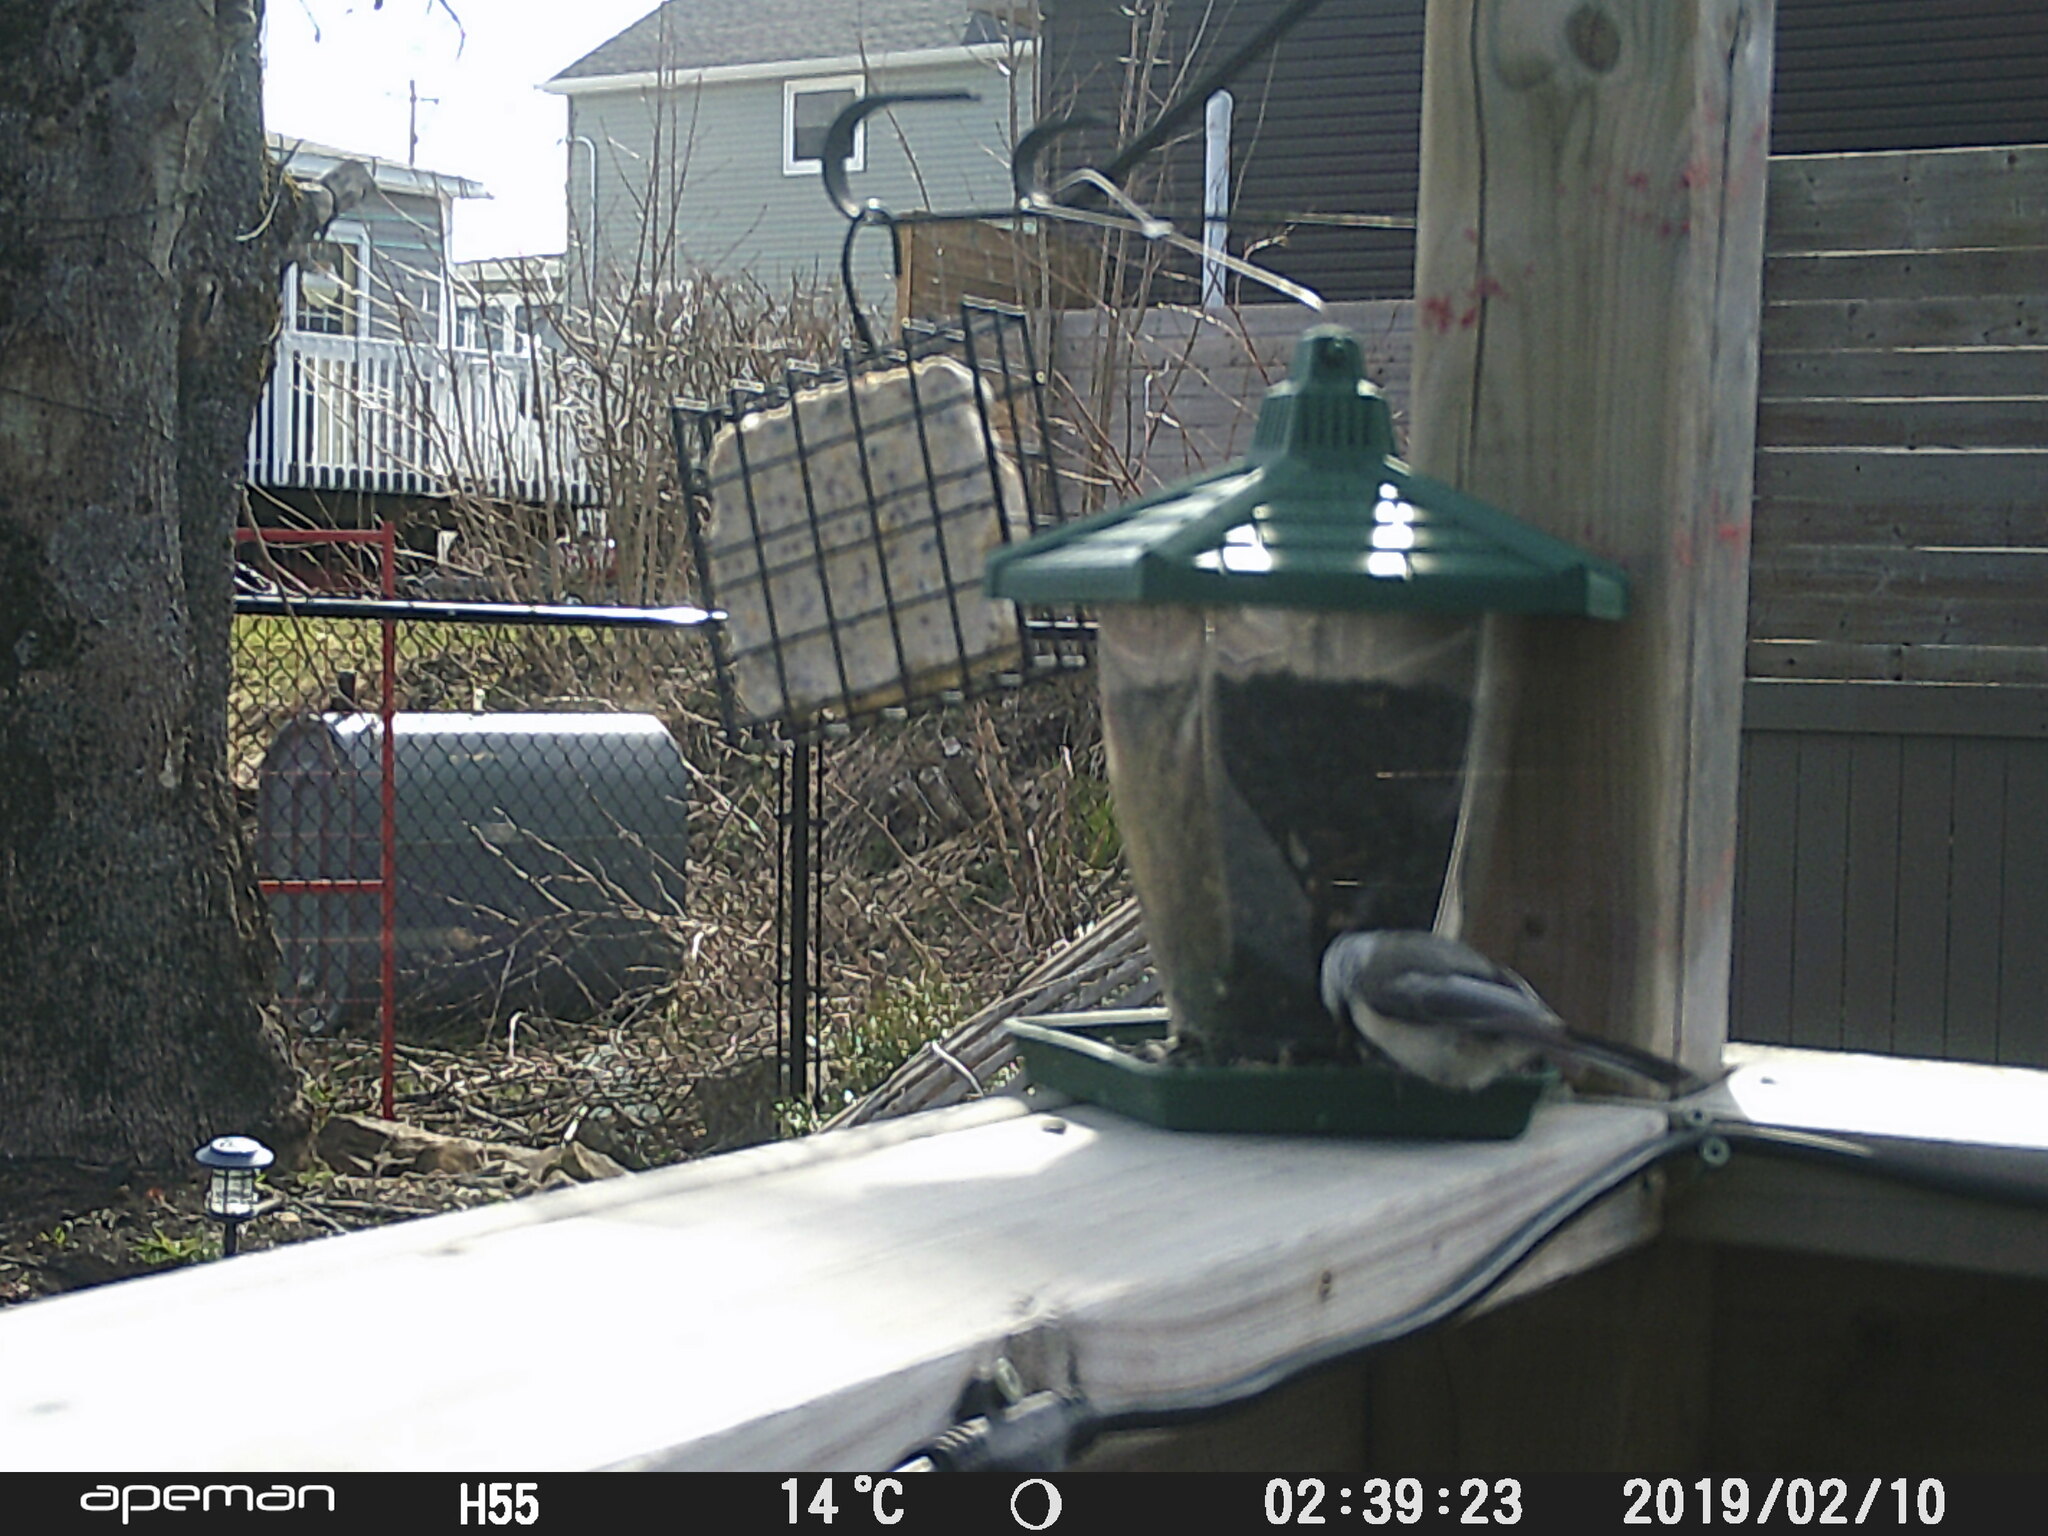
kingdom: Animalia
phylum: Chordata
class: Aves
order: Passeriformes
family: Paridae
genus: Poecile
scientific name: Poecile atricapillus
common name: Black-capped chickadee
